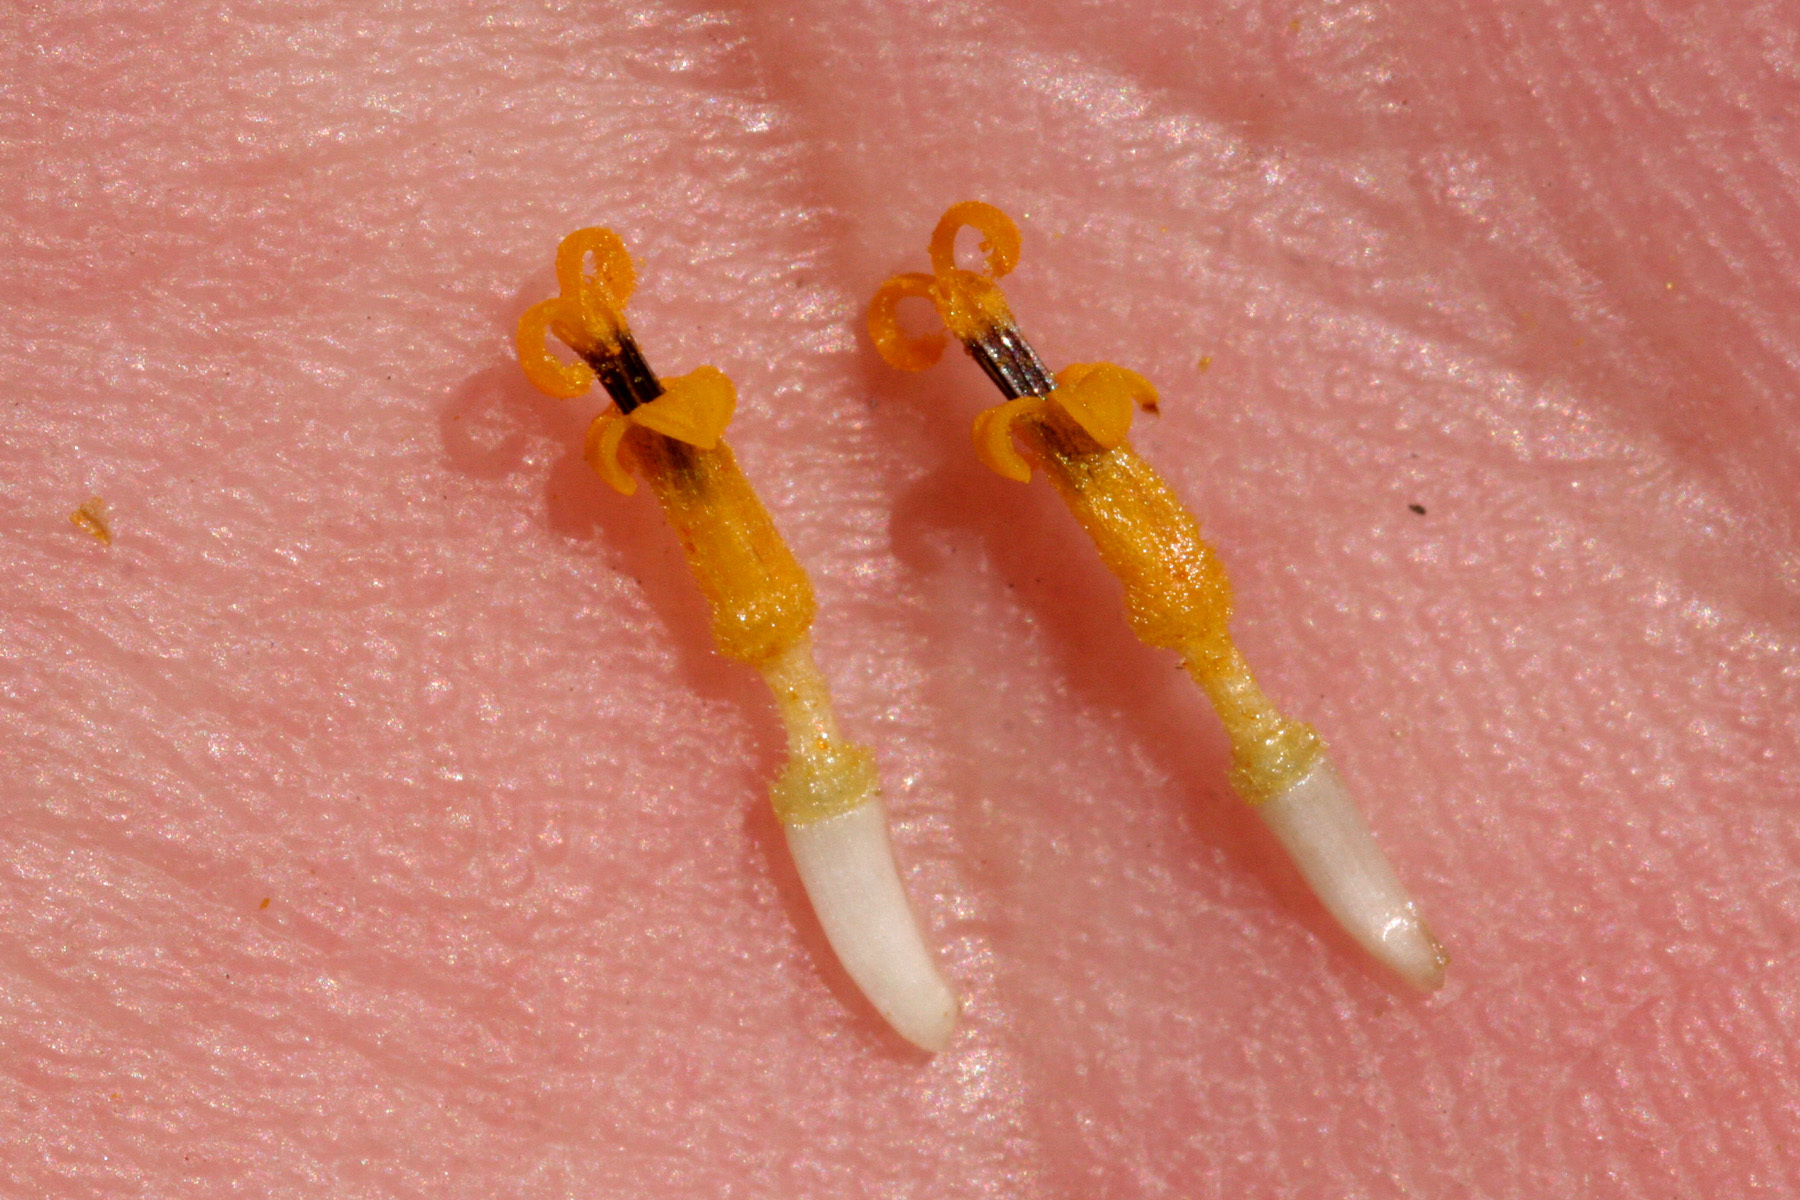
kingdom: Plantae
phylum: Tracheophyta
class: Magnoliopsida
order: Asterales
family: Asteraceae
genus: Sidneya
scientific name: Sidneya tenuifolia
